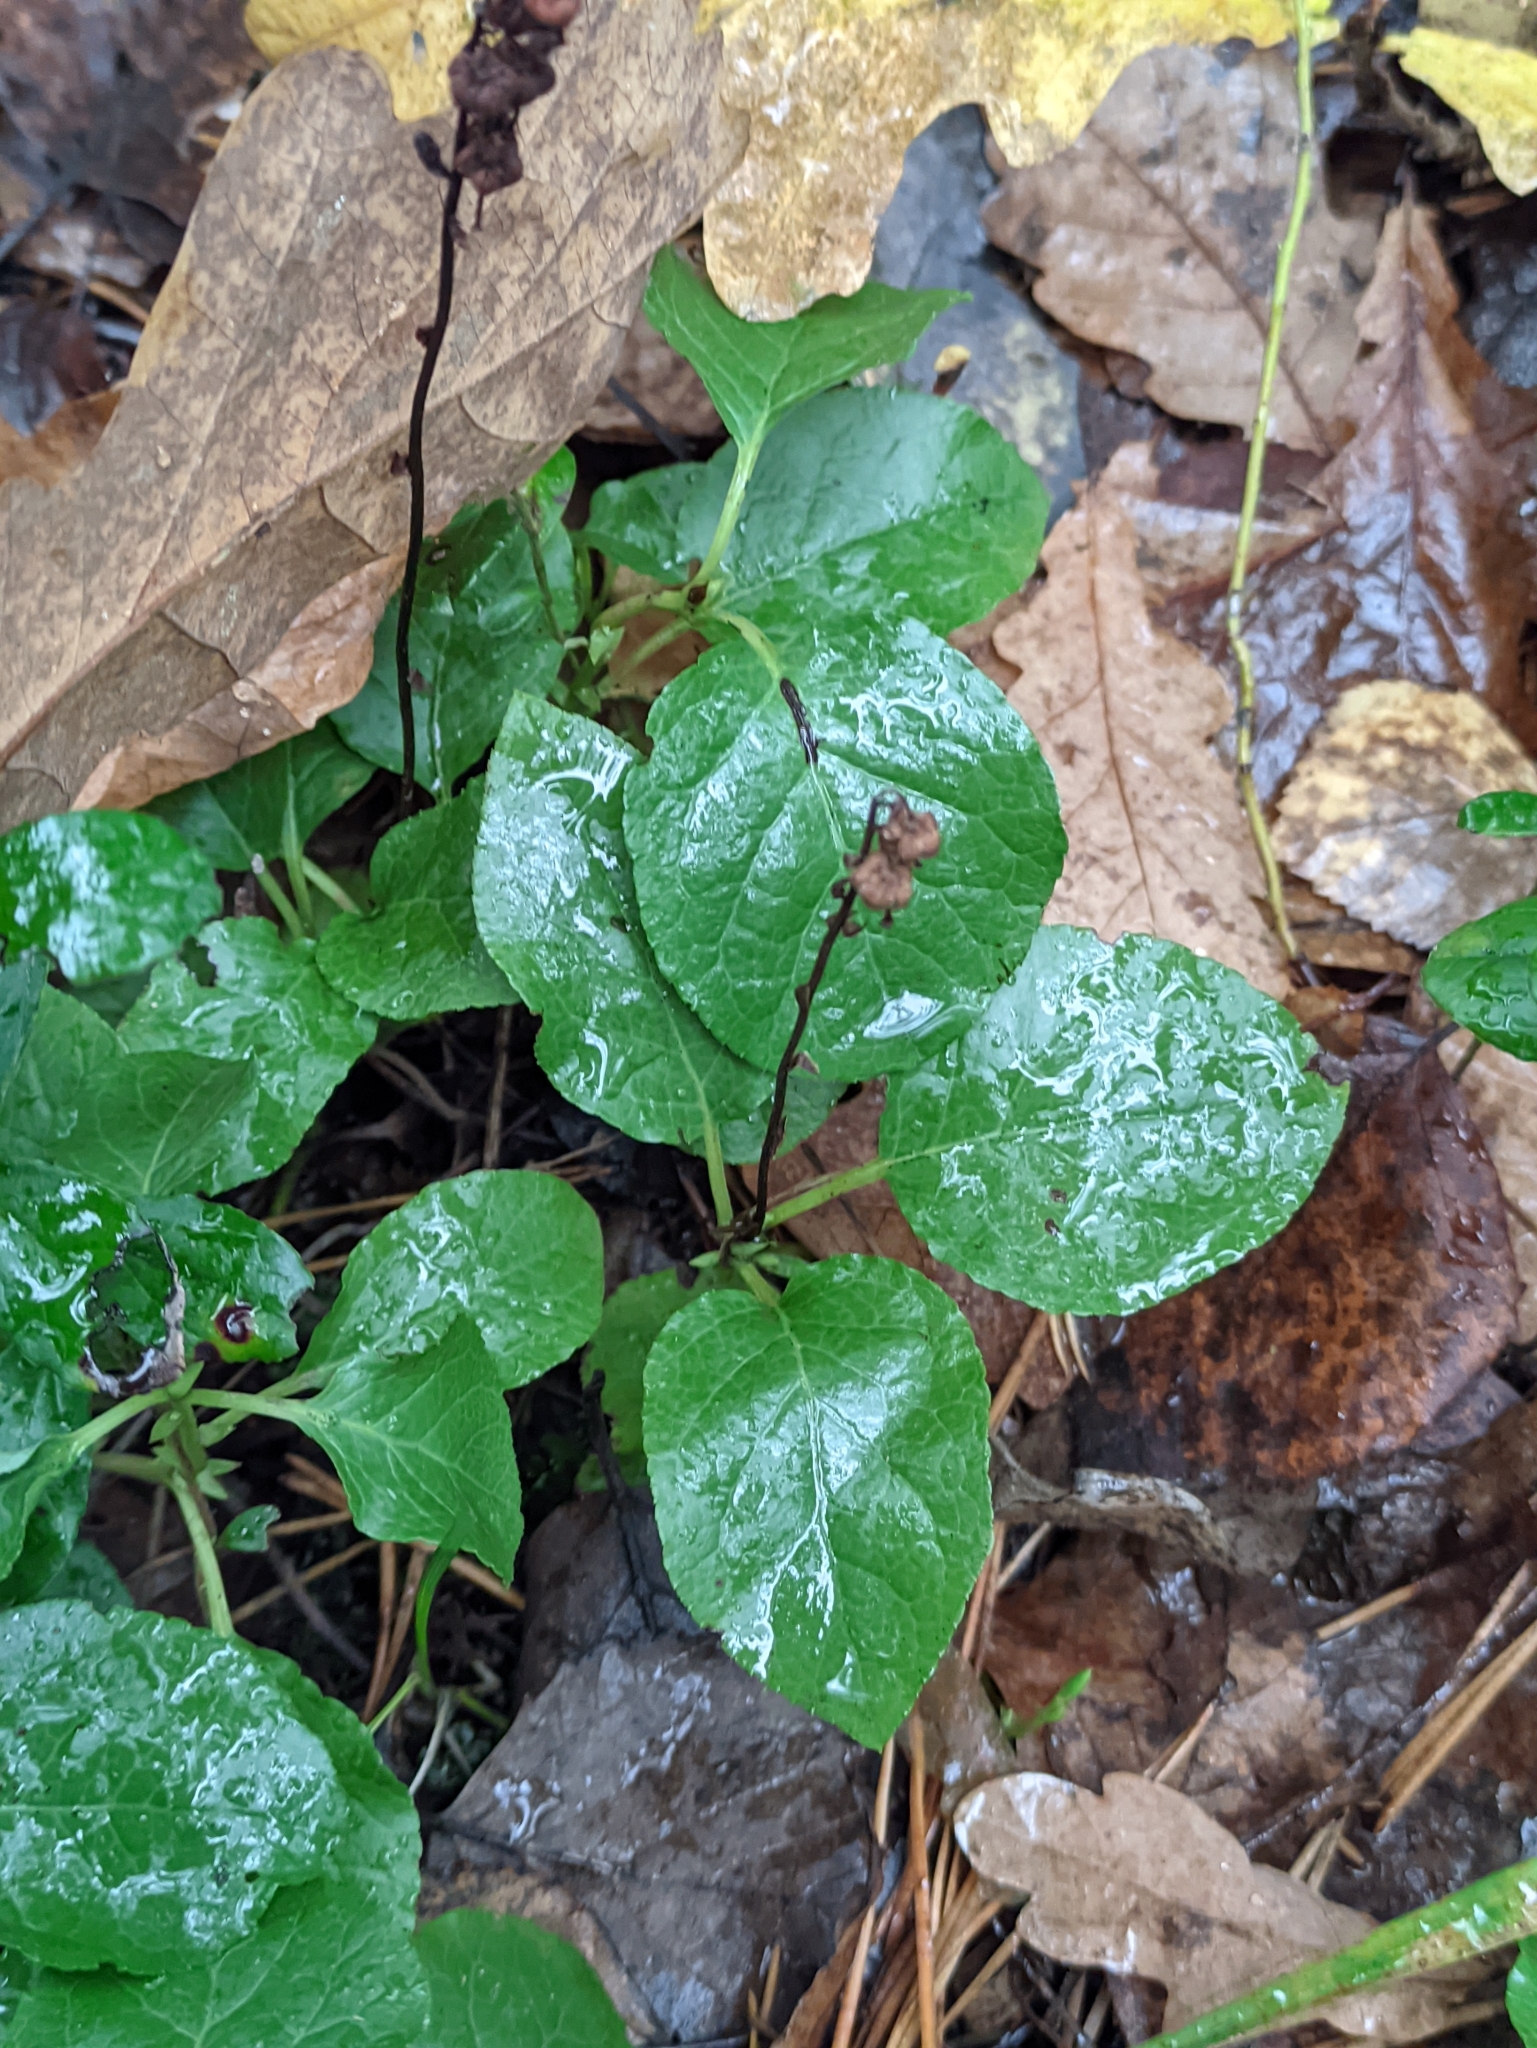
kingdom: Plantae
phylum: Tracheophyta
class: Magnoliopsida
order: Ericales
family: Ericaceae
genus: Orthilia
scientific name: Orthilia secunda
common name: One-sided orthilia
